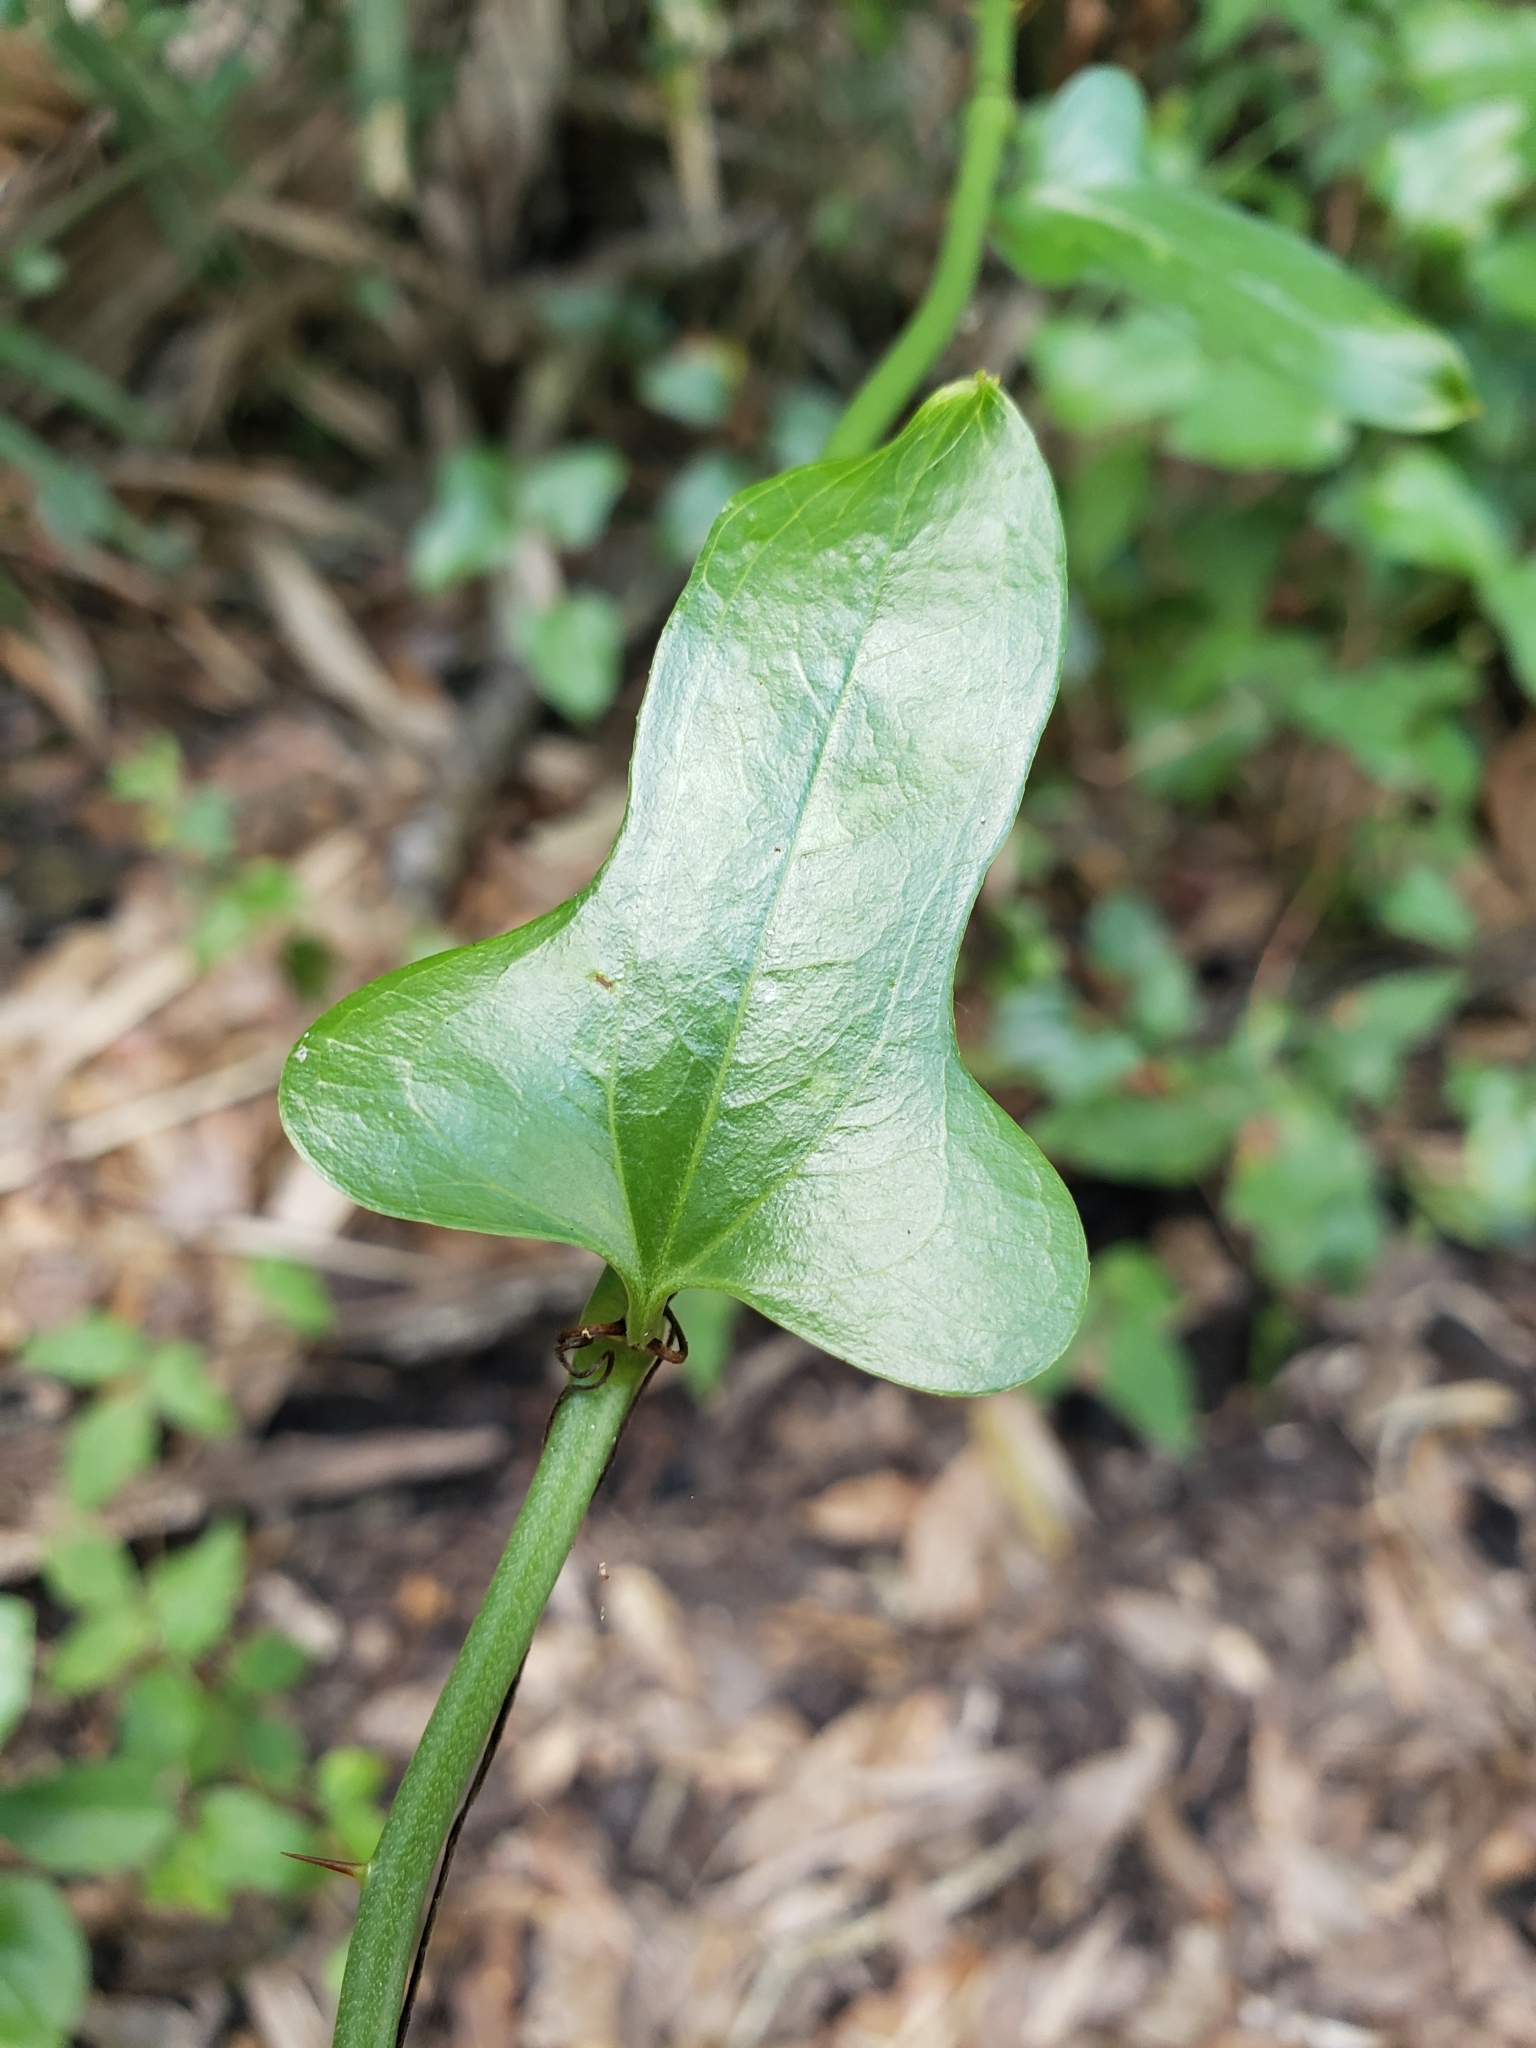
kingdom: Plantae
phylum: Tracheophyta
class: Liliopsida
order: Liliales
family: Smilacaceae
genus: Smilax
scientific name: Smilax auriculata
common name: Wild bamboo
